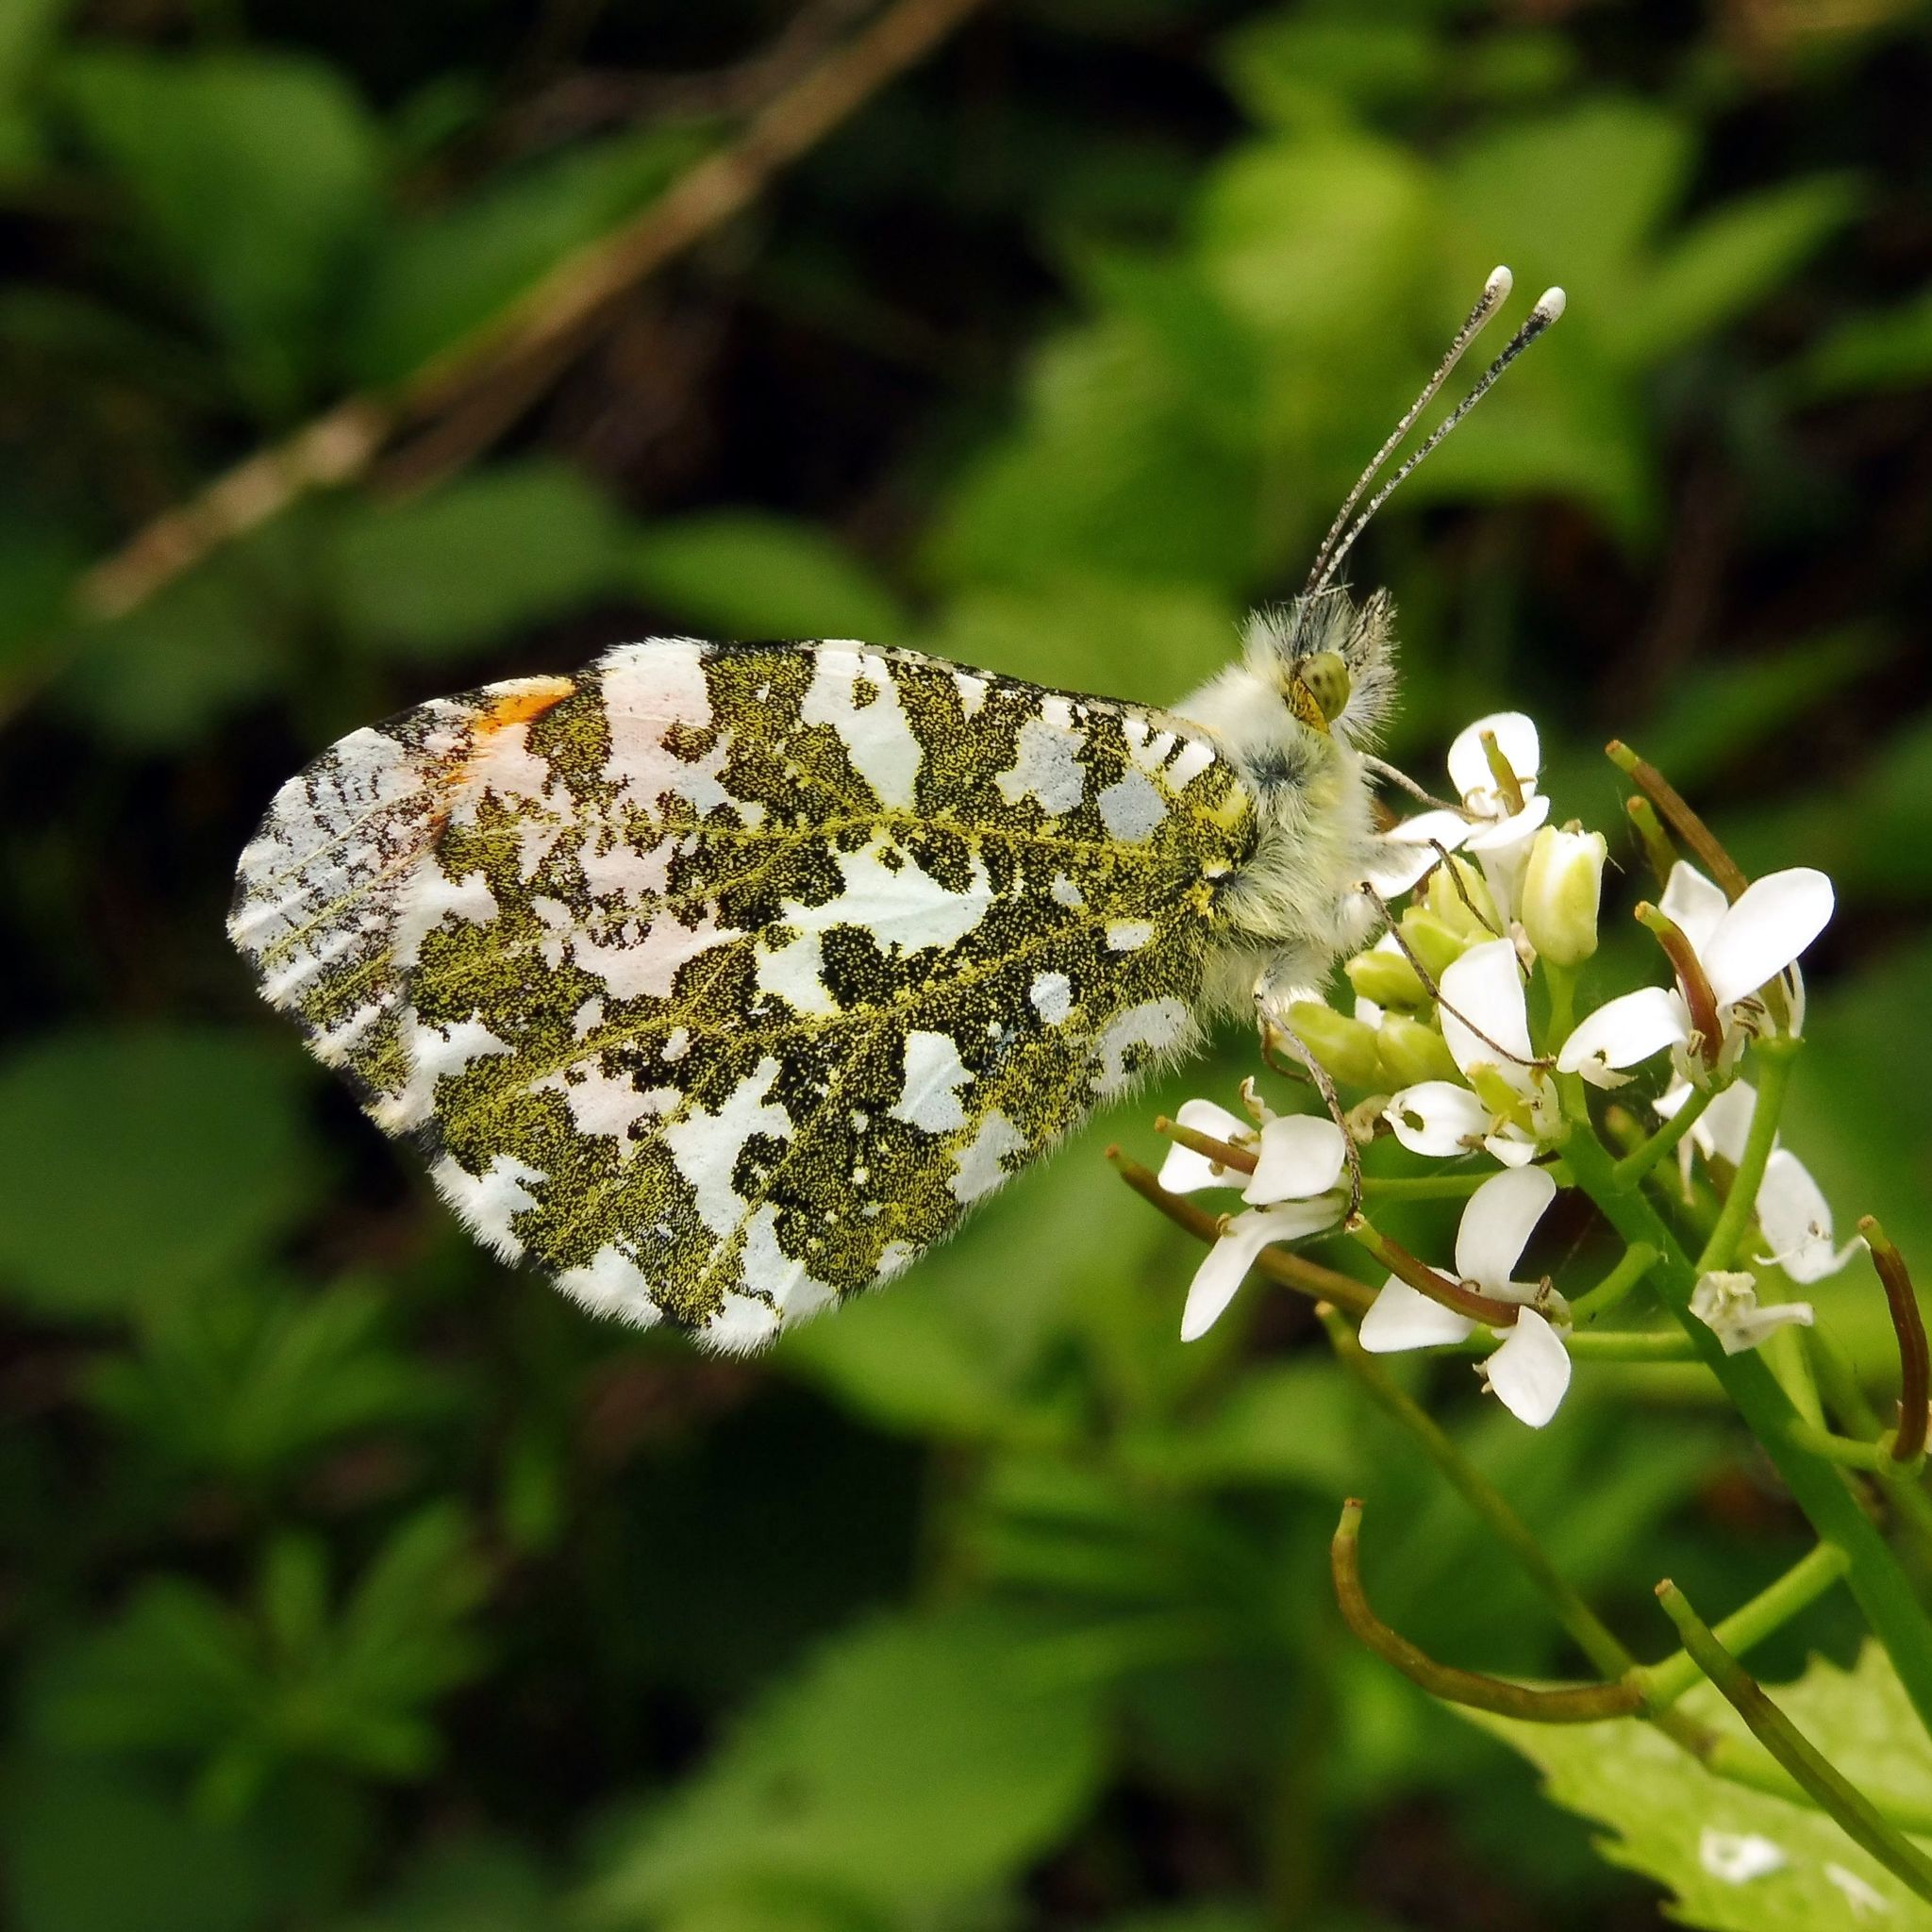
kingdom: Animalia
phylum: Arthropoda
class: Insecta
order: Lepidoptera
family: Pieridae
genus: Anthocharis
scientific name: Anthocharis cardamines
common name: Orange-tip
